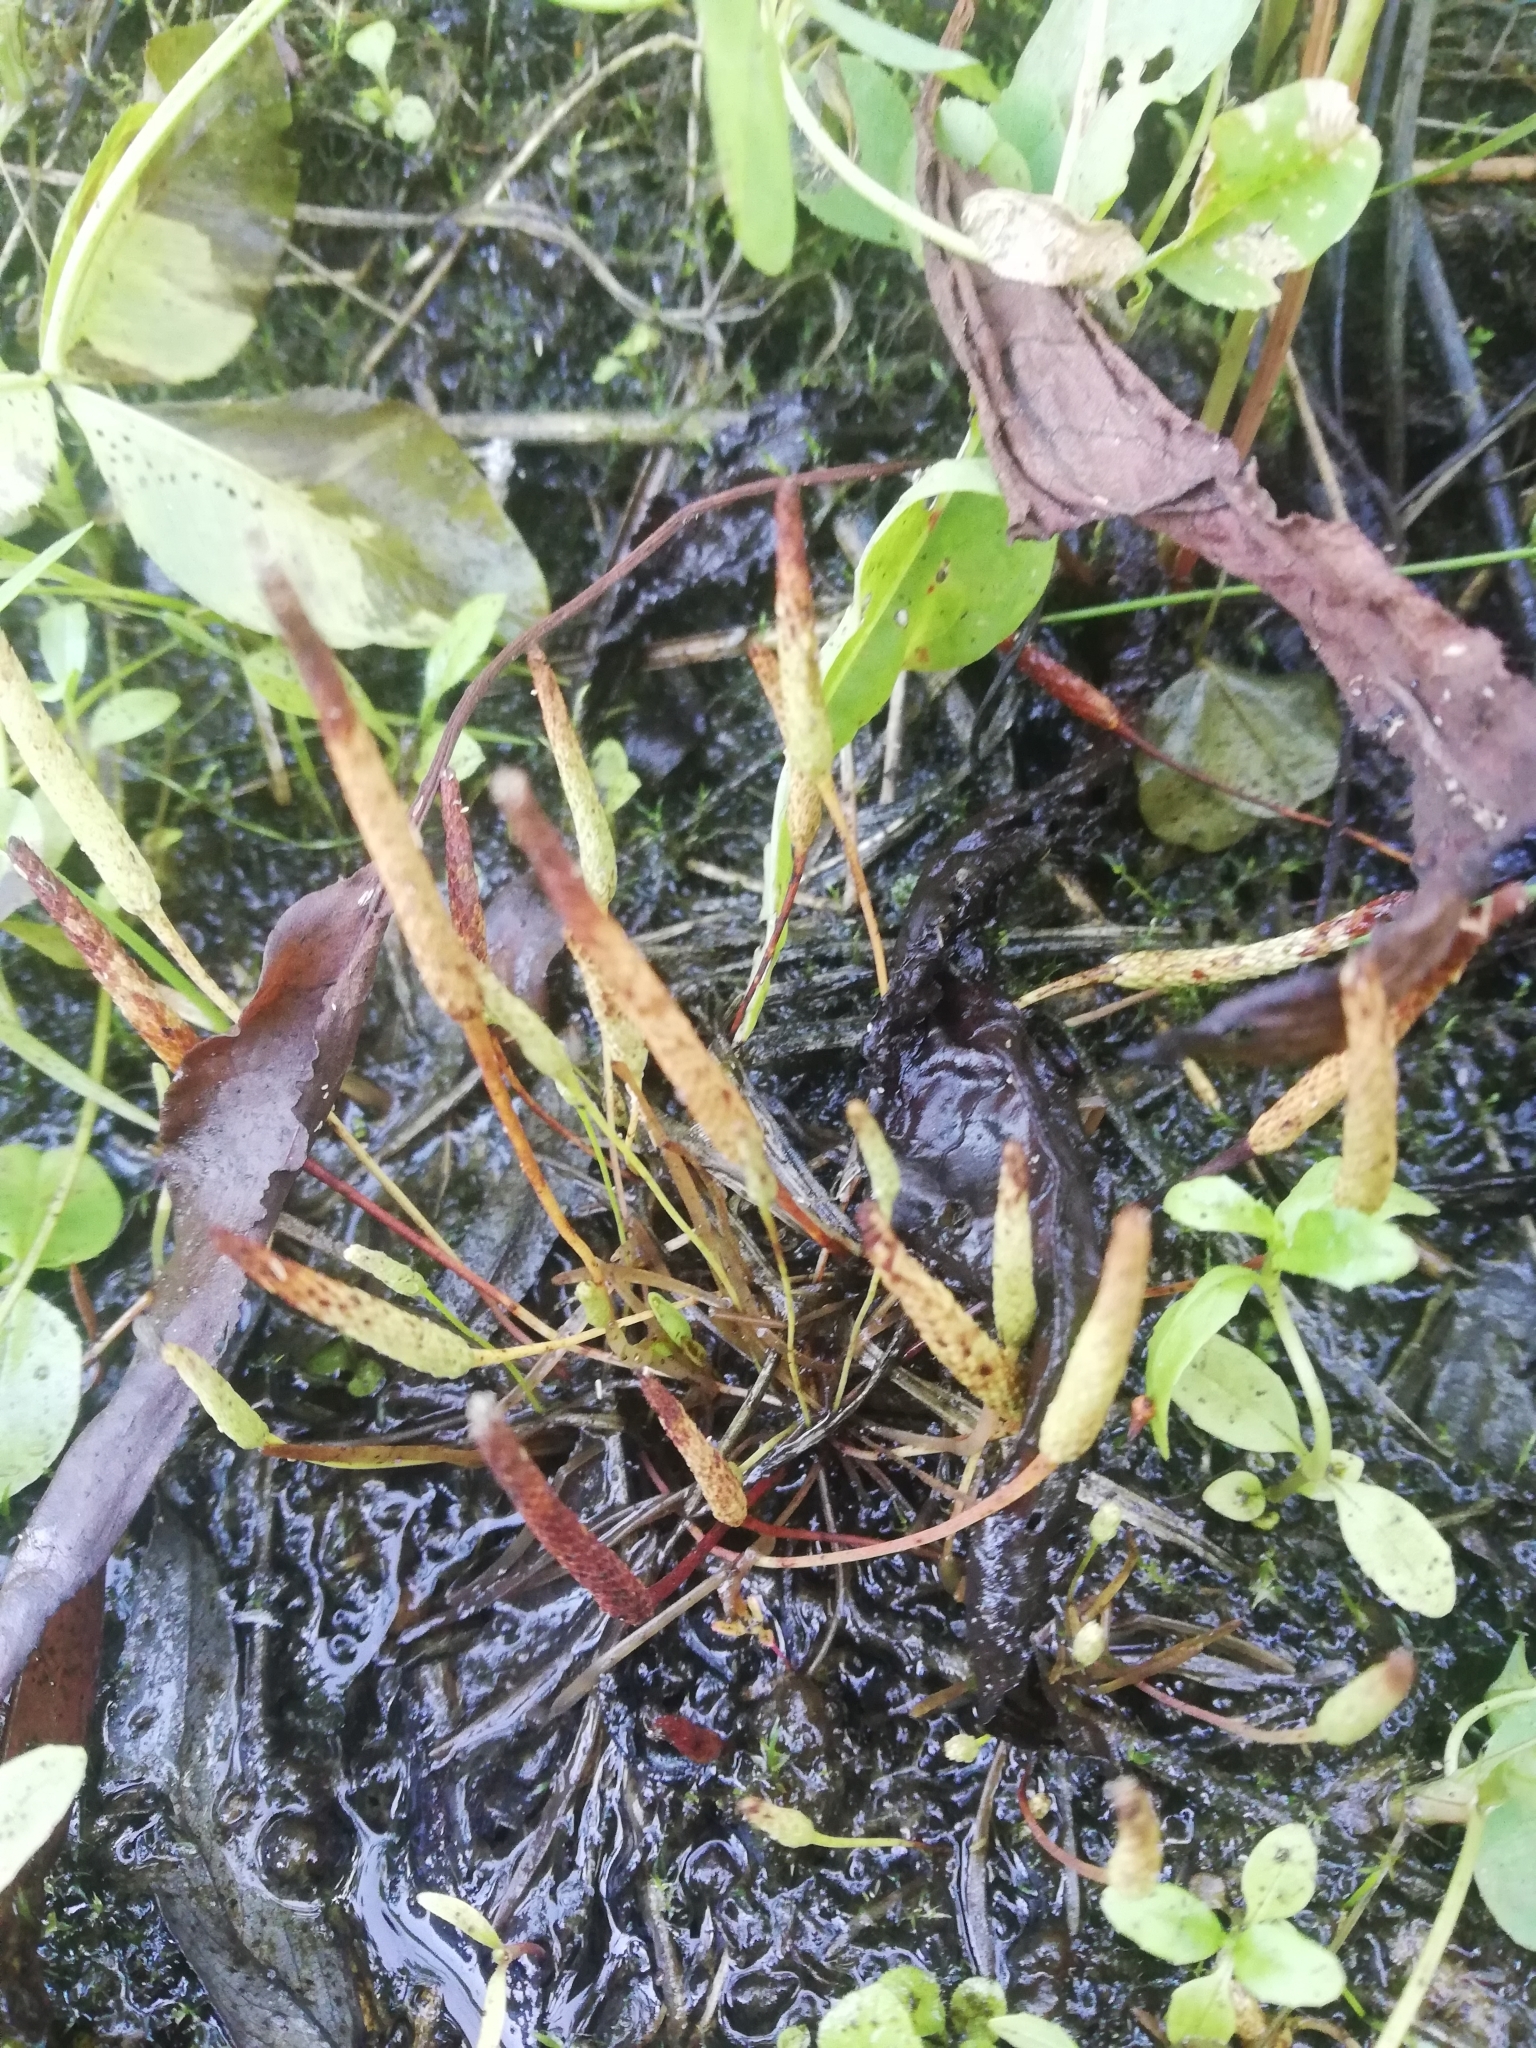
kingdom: Plantae
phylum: Tracheophyta
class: Magnoliopsida
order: Ranunculales
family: Ranunculaceae
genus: Myosurus
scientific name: Myosurus minimus
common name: Mousetail
